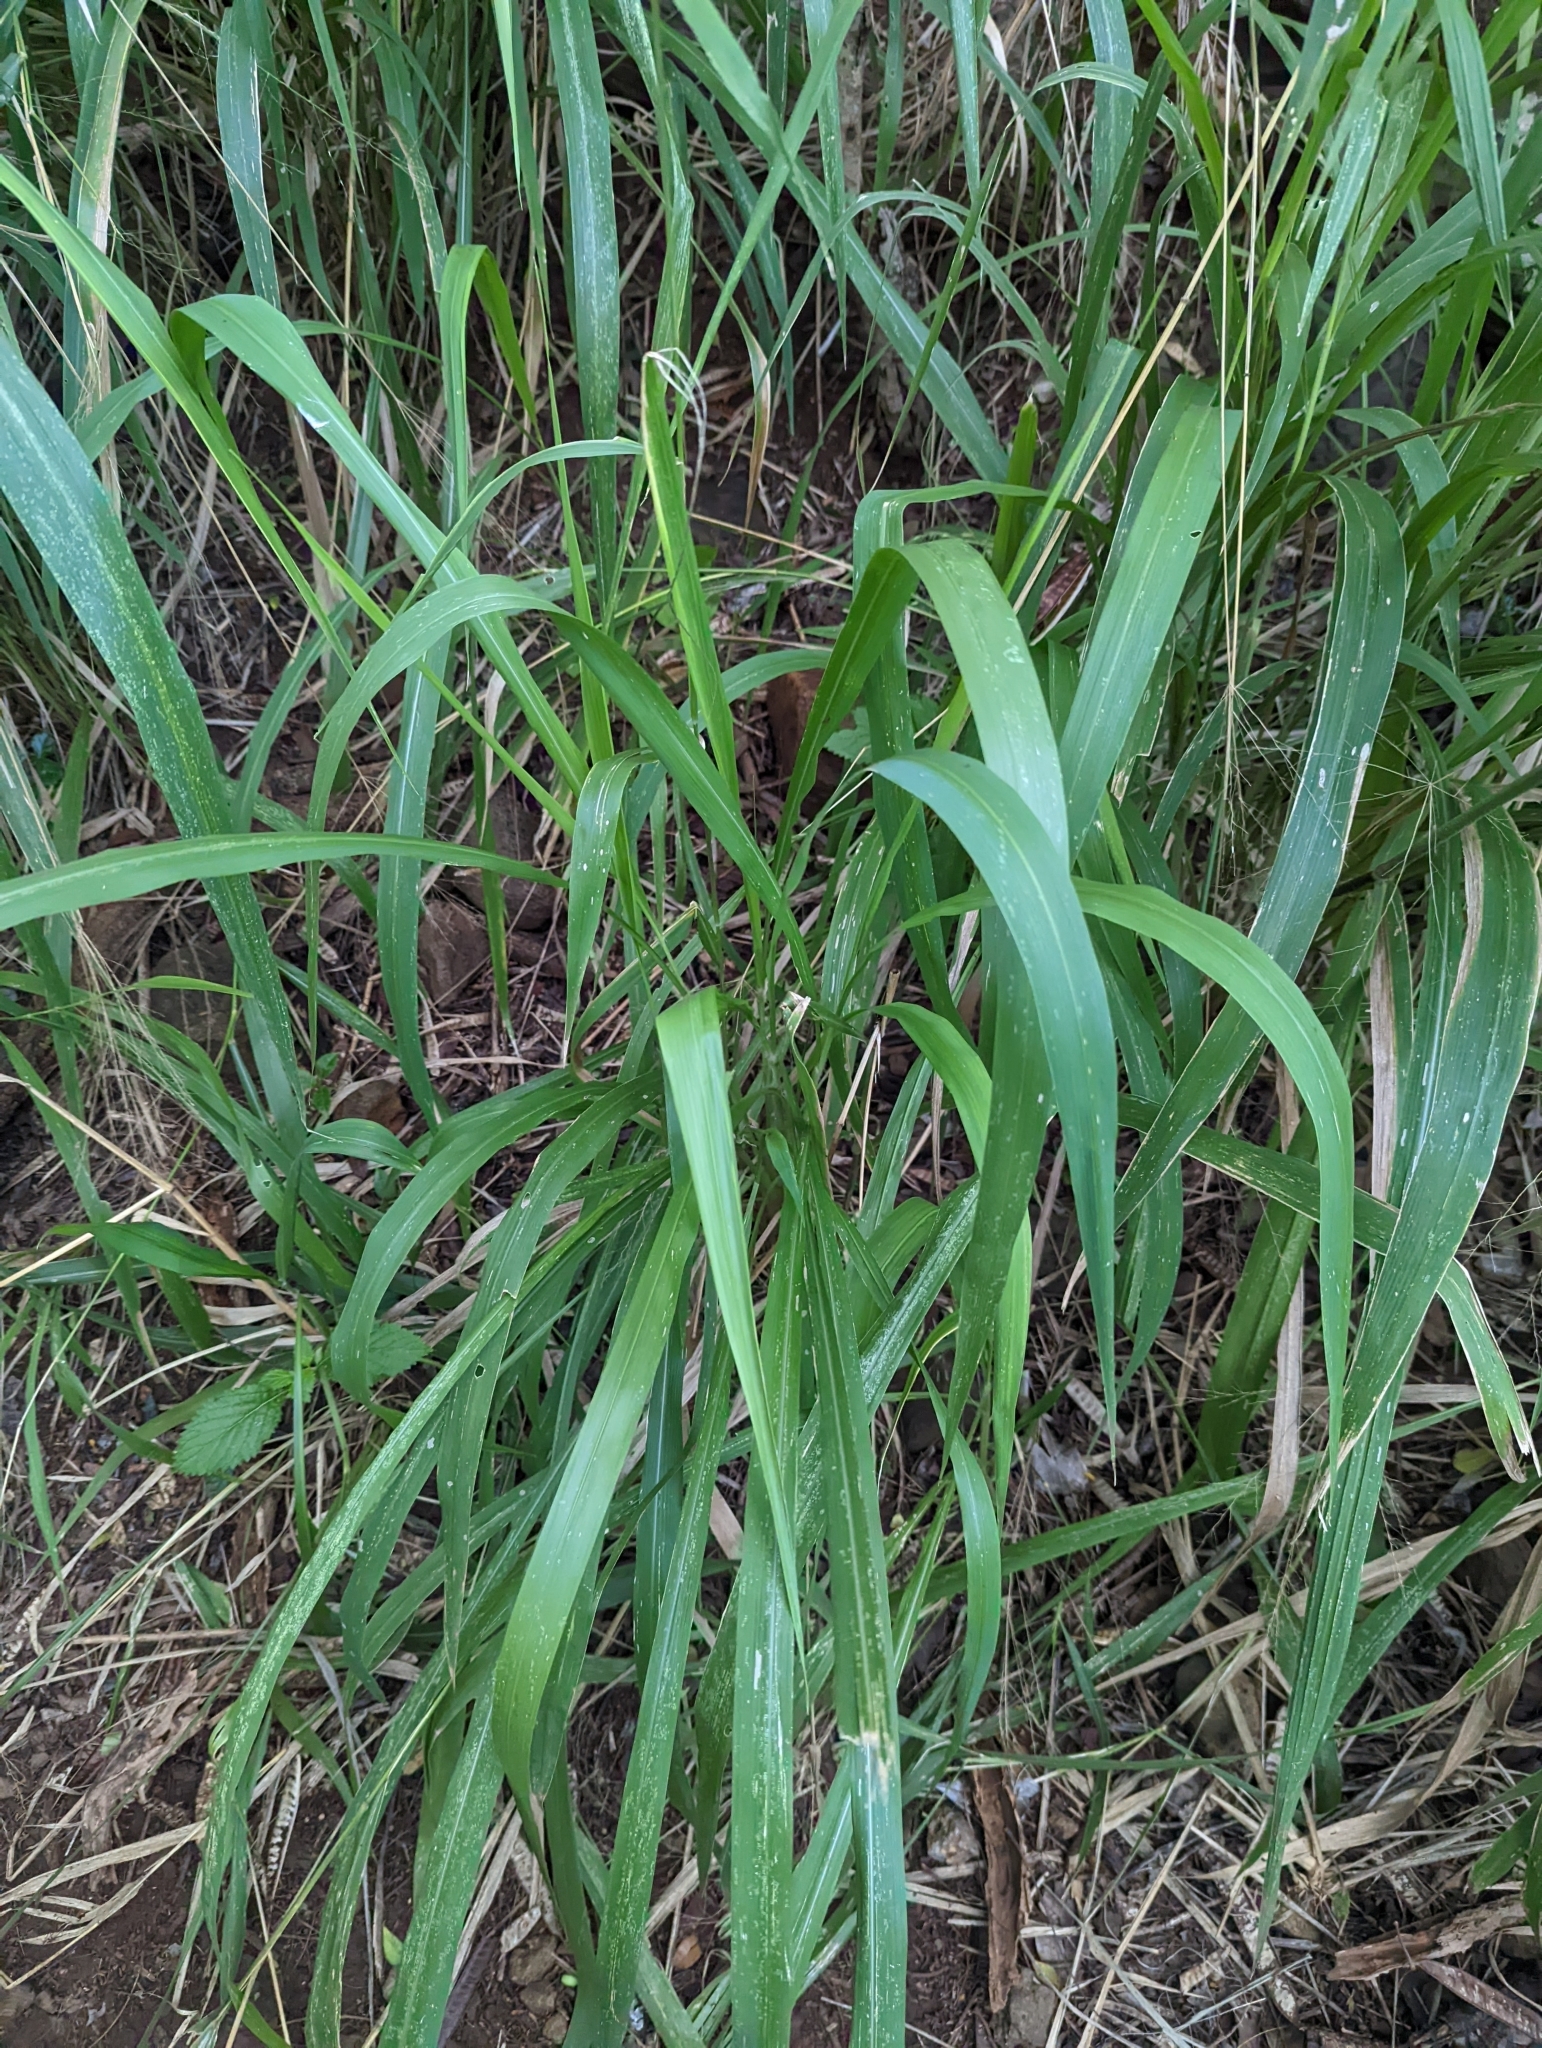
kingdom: Plantae
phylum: Tracheophyta
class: Liliopsida
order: Poales
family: Poaceae
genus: Megathyrsus
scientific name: Megathyrsus maximus
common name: Guineagrass
